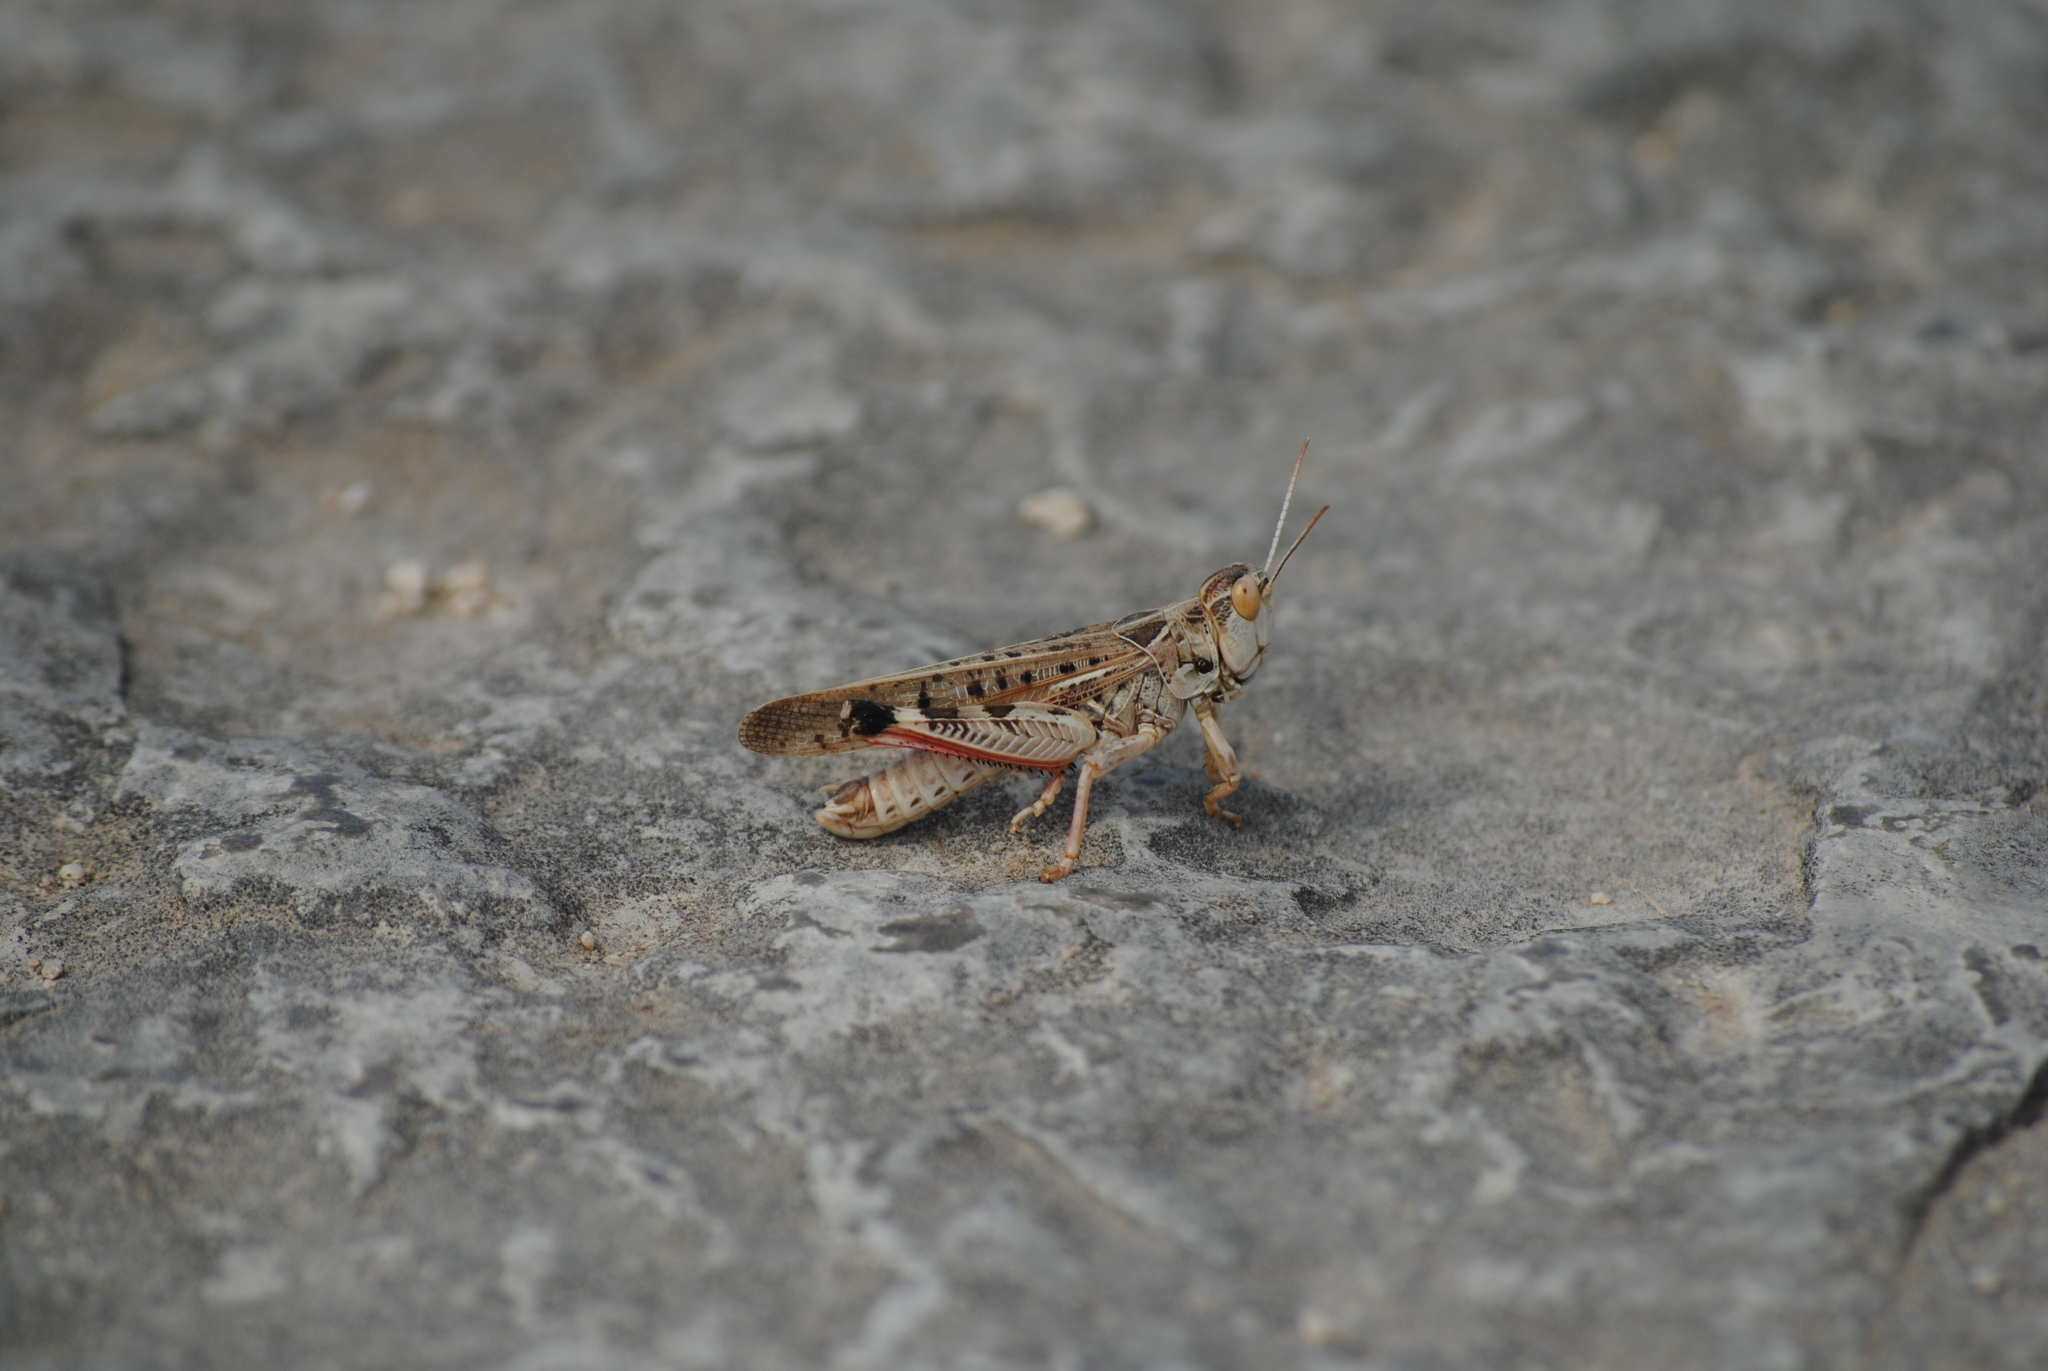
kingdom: Animalia
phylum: Arthropoda
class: Insecta
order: Orthoptera
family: Acrididae
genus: Dociostaurus
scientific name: Dociostaurus maroccanus
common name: Moroccan locust
